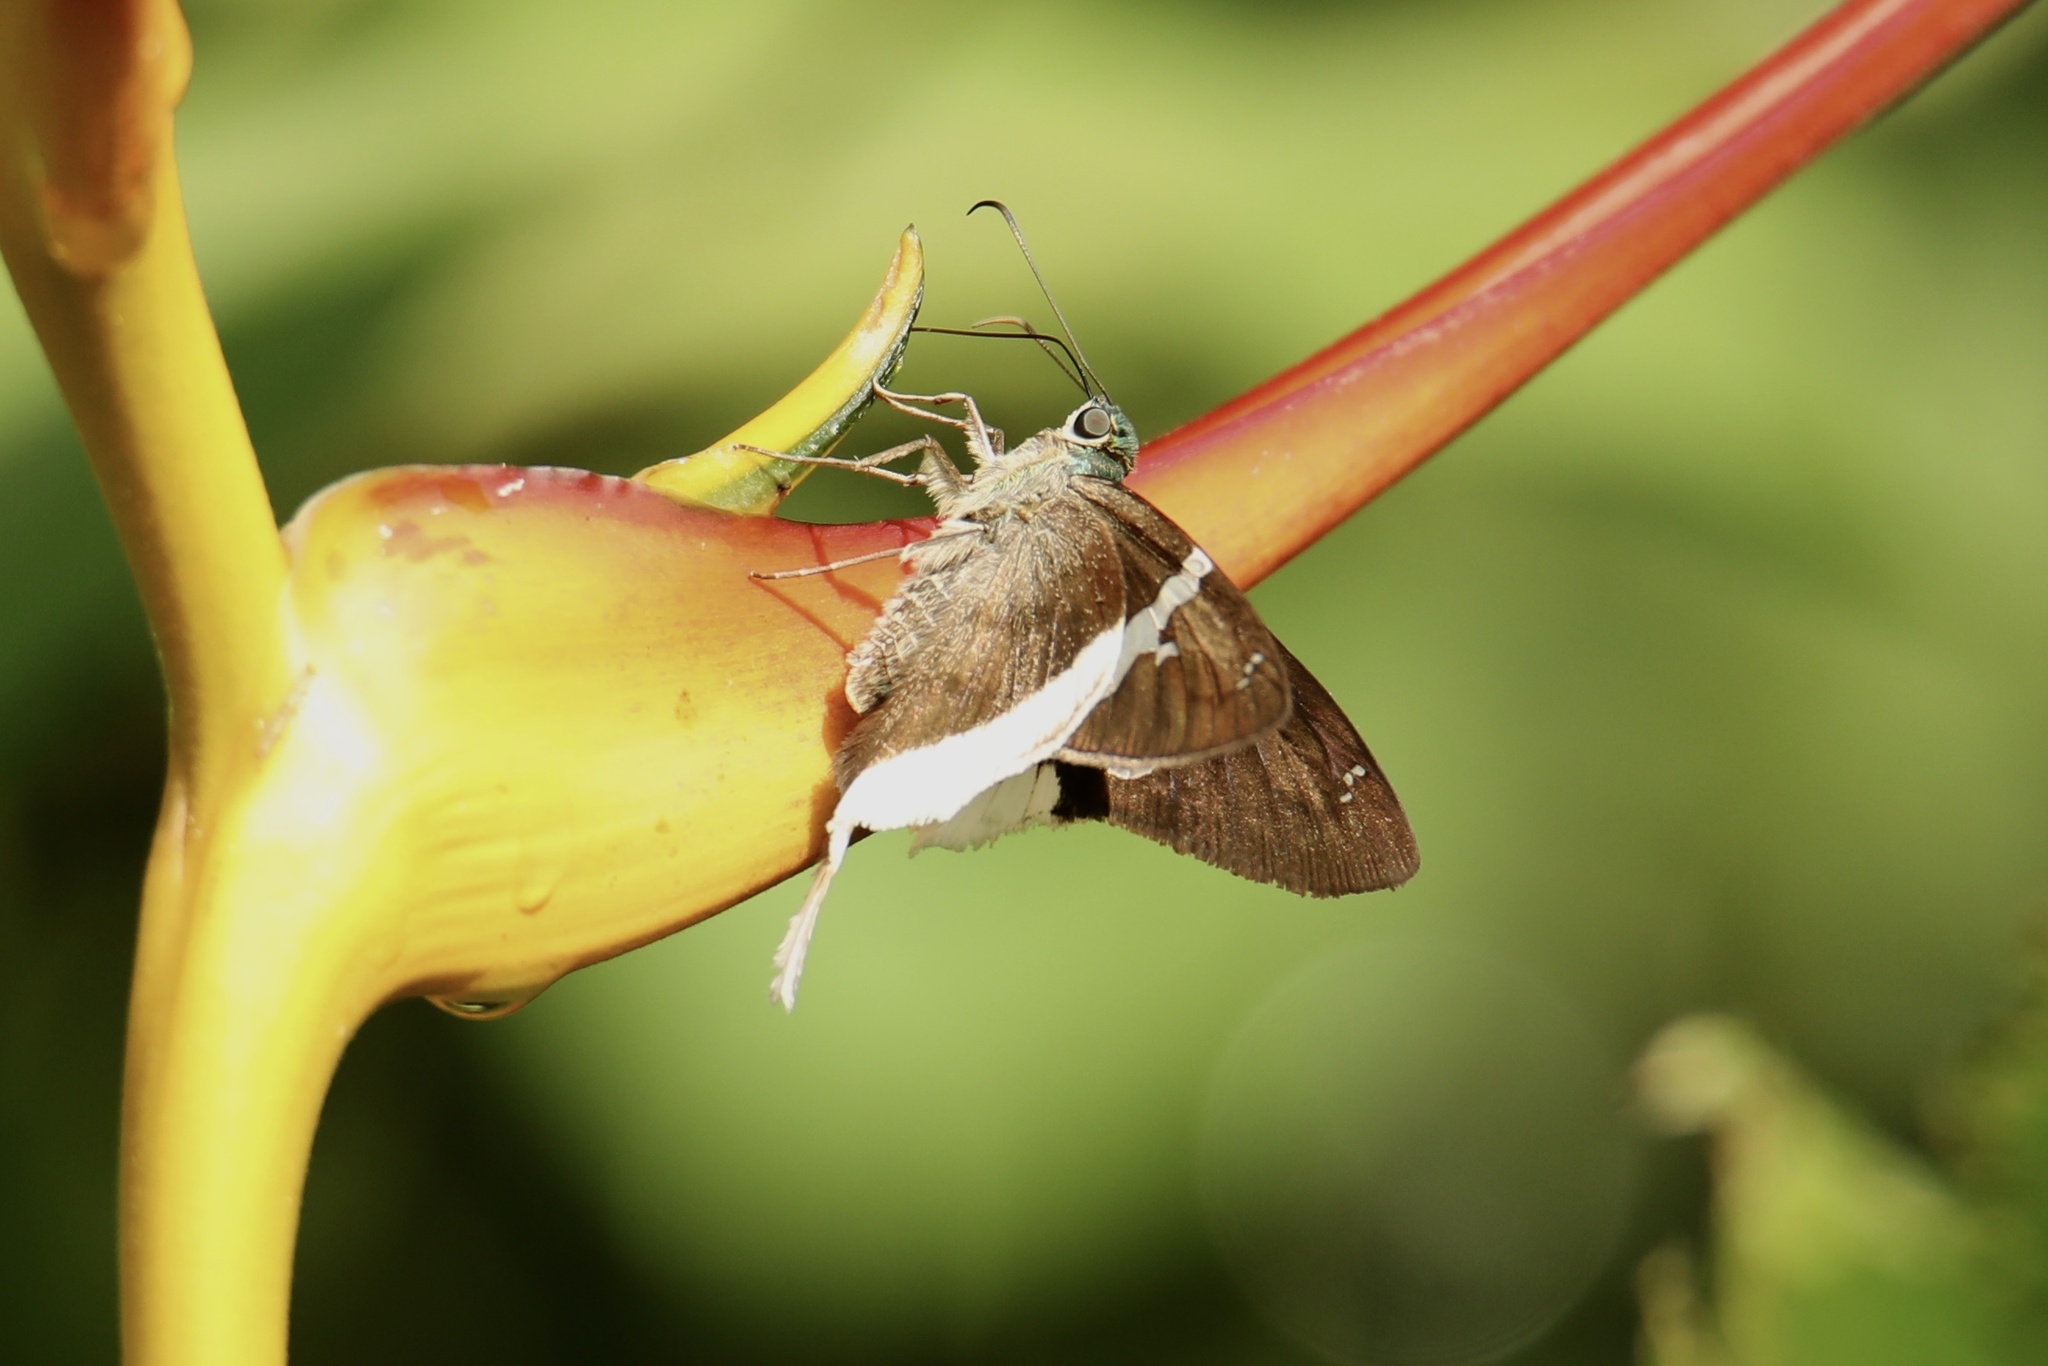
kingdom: Animalia
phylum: Arthropoda
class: Insecta
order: Lepidoptera
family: Hesperiidae
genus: Urbanus
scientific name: Urbanus chalco
